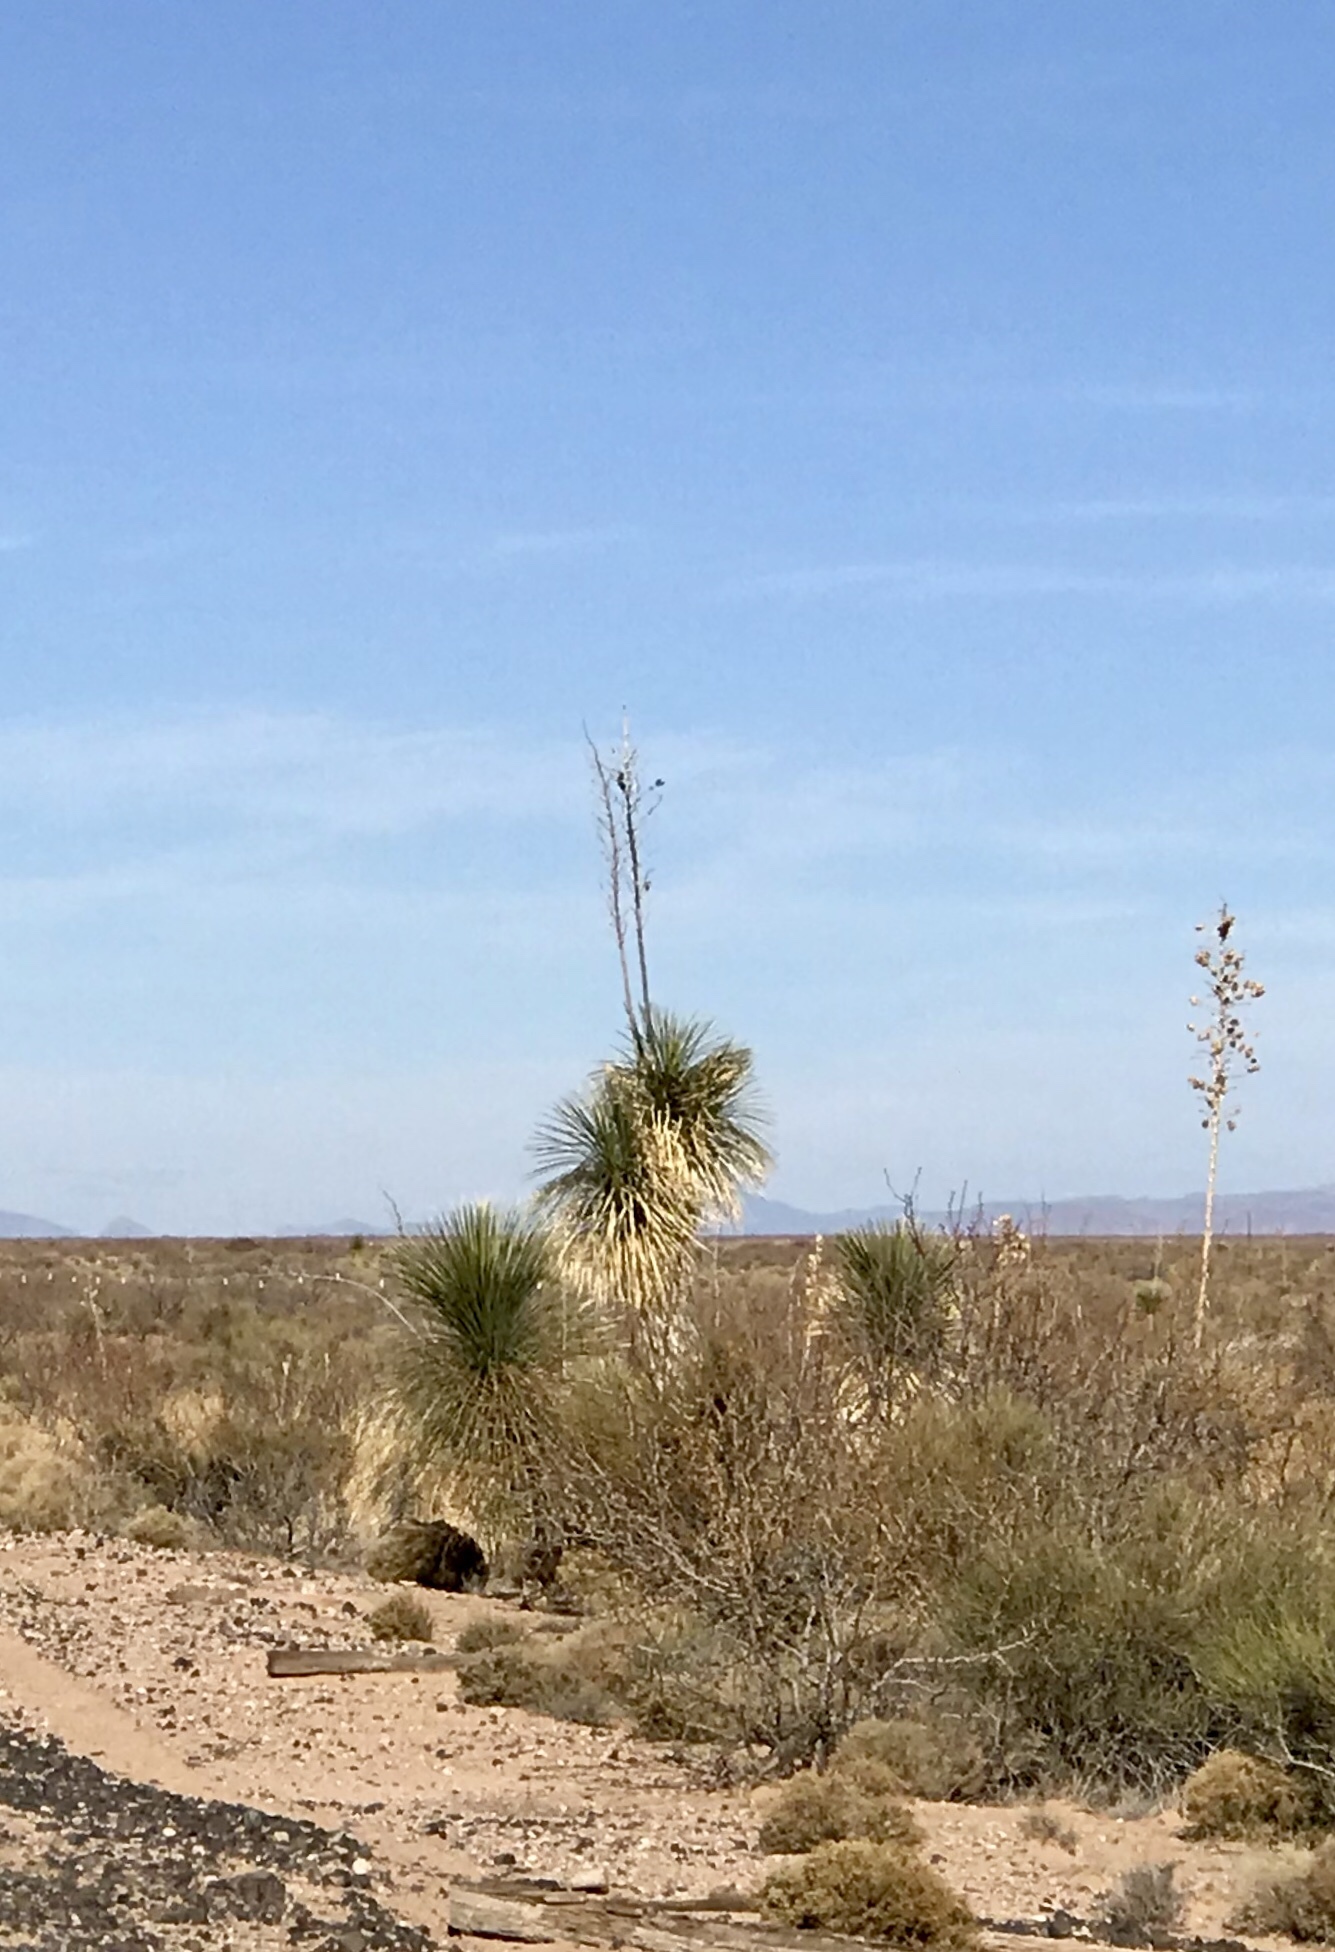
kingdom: Plantae
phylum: Tracheophyta
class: Liliopsida
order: Asparagales
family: Asparagaceae
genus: Yucca
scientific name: Yucca elata
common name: Palmella
